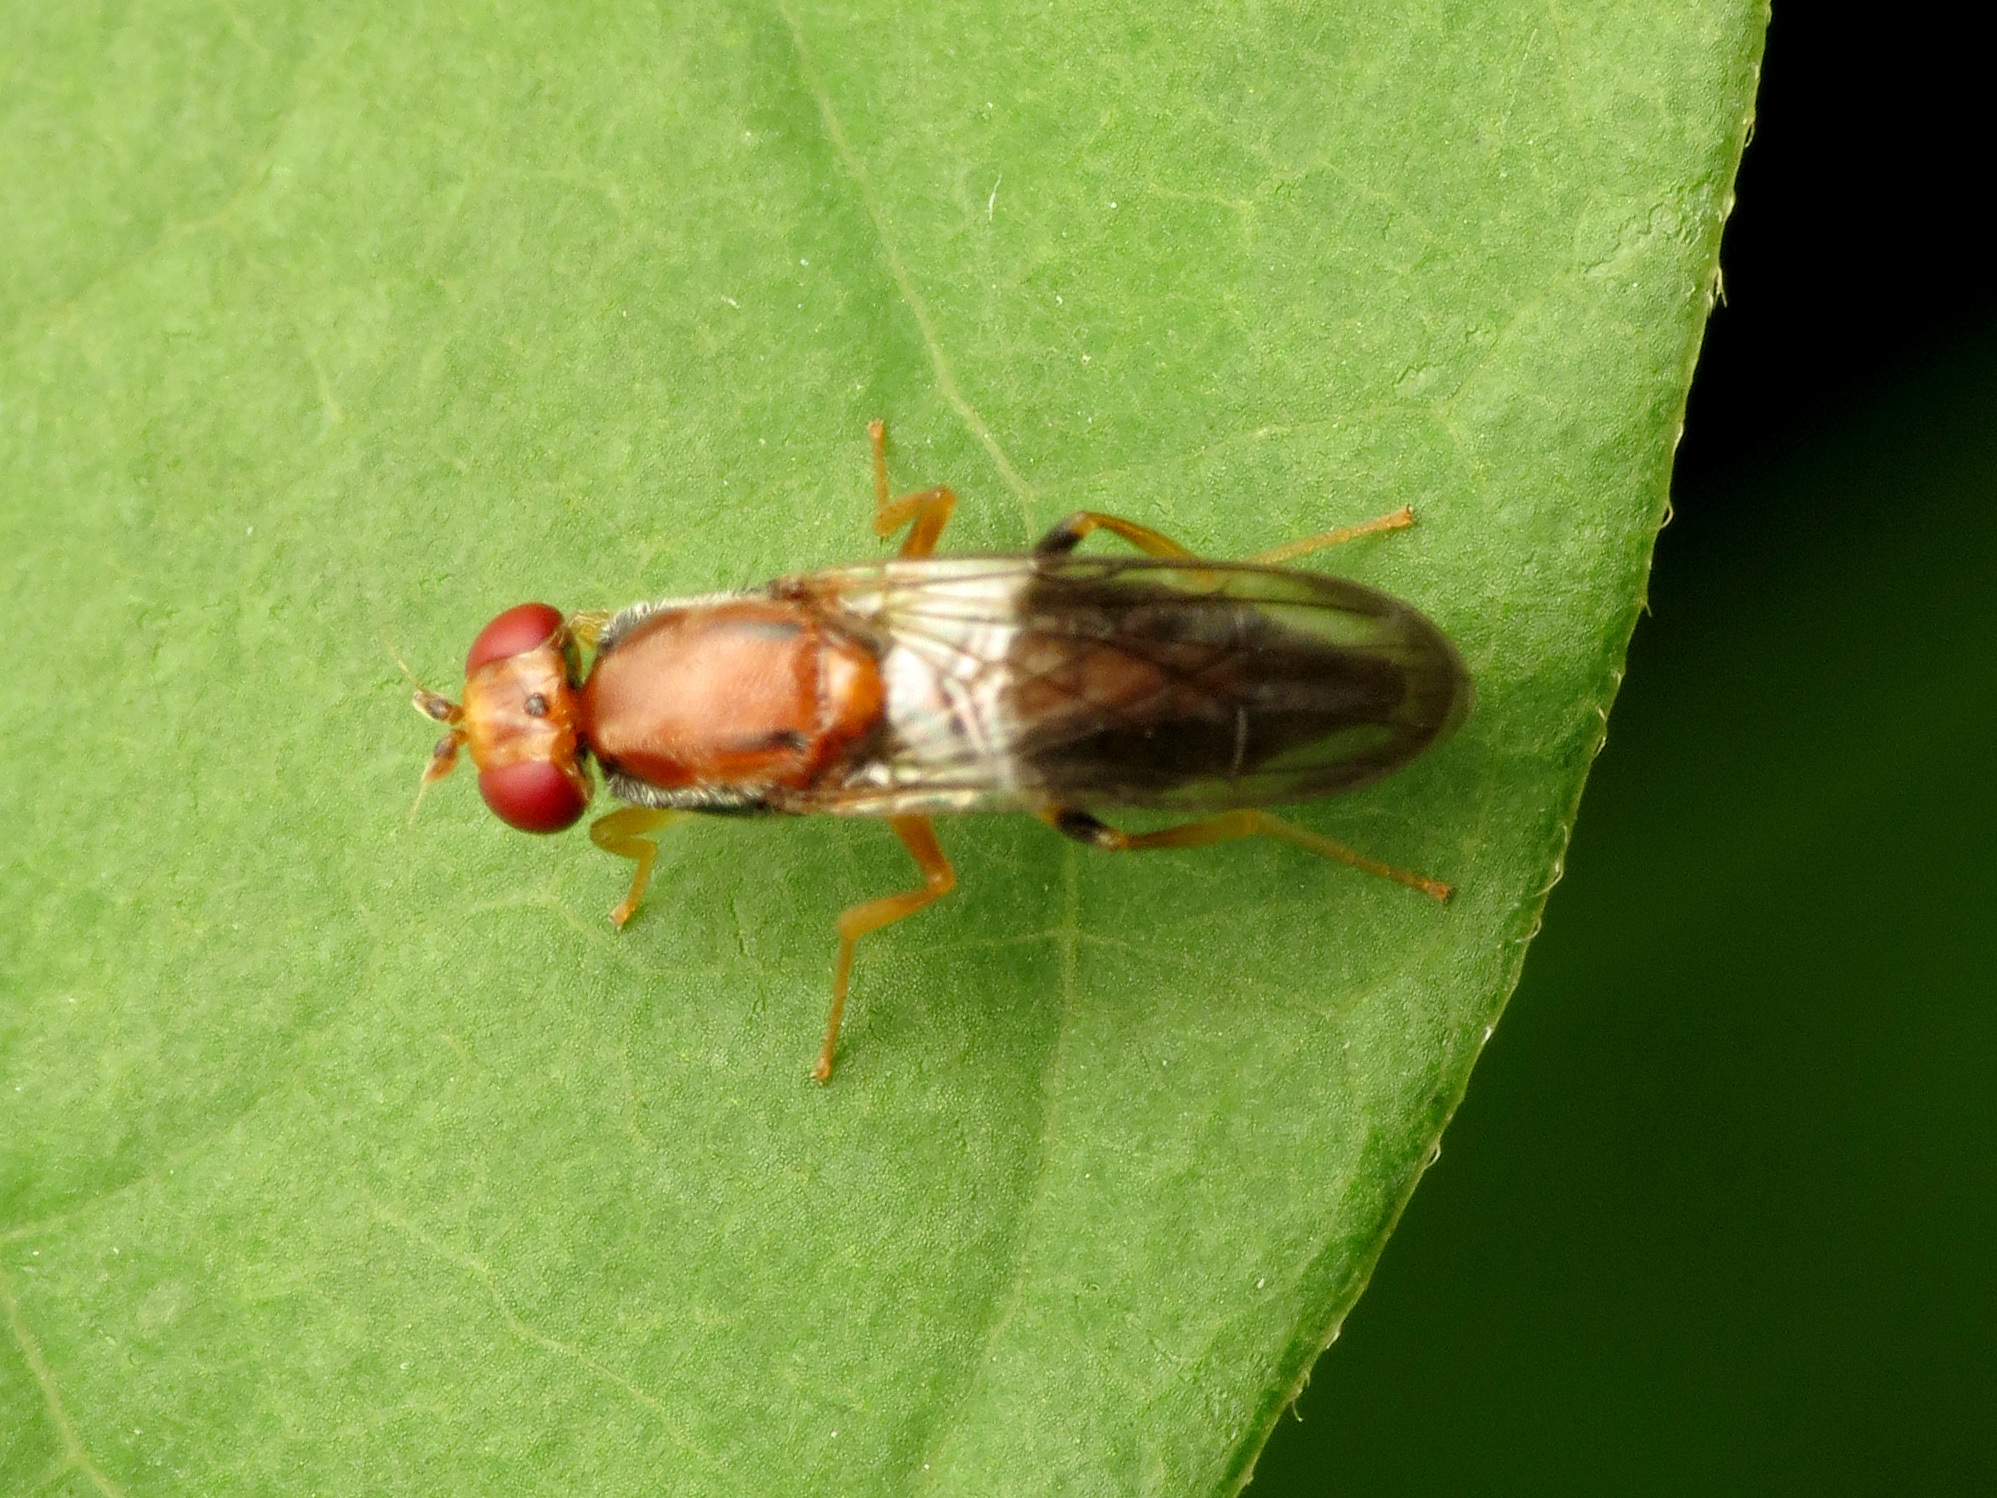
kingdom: Animalia
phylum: Arthropoda
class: Insecta
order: Diptera
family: Psilidae
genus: Chyliza
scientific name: Chyliza apicalis
